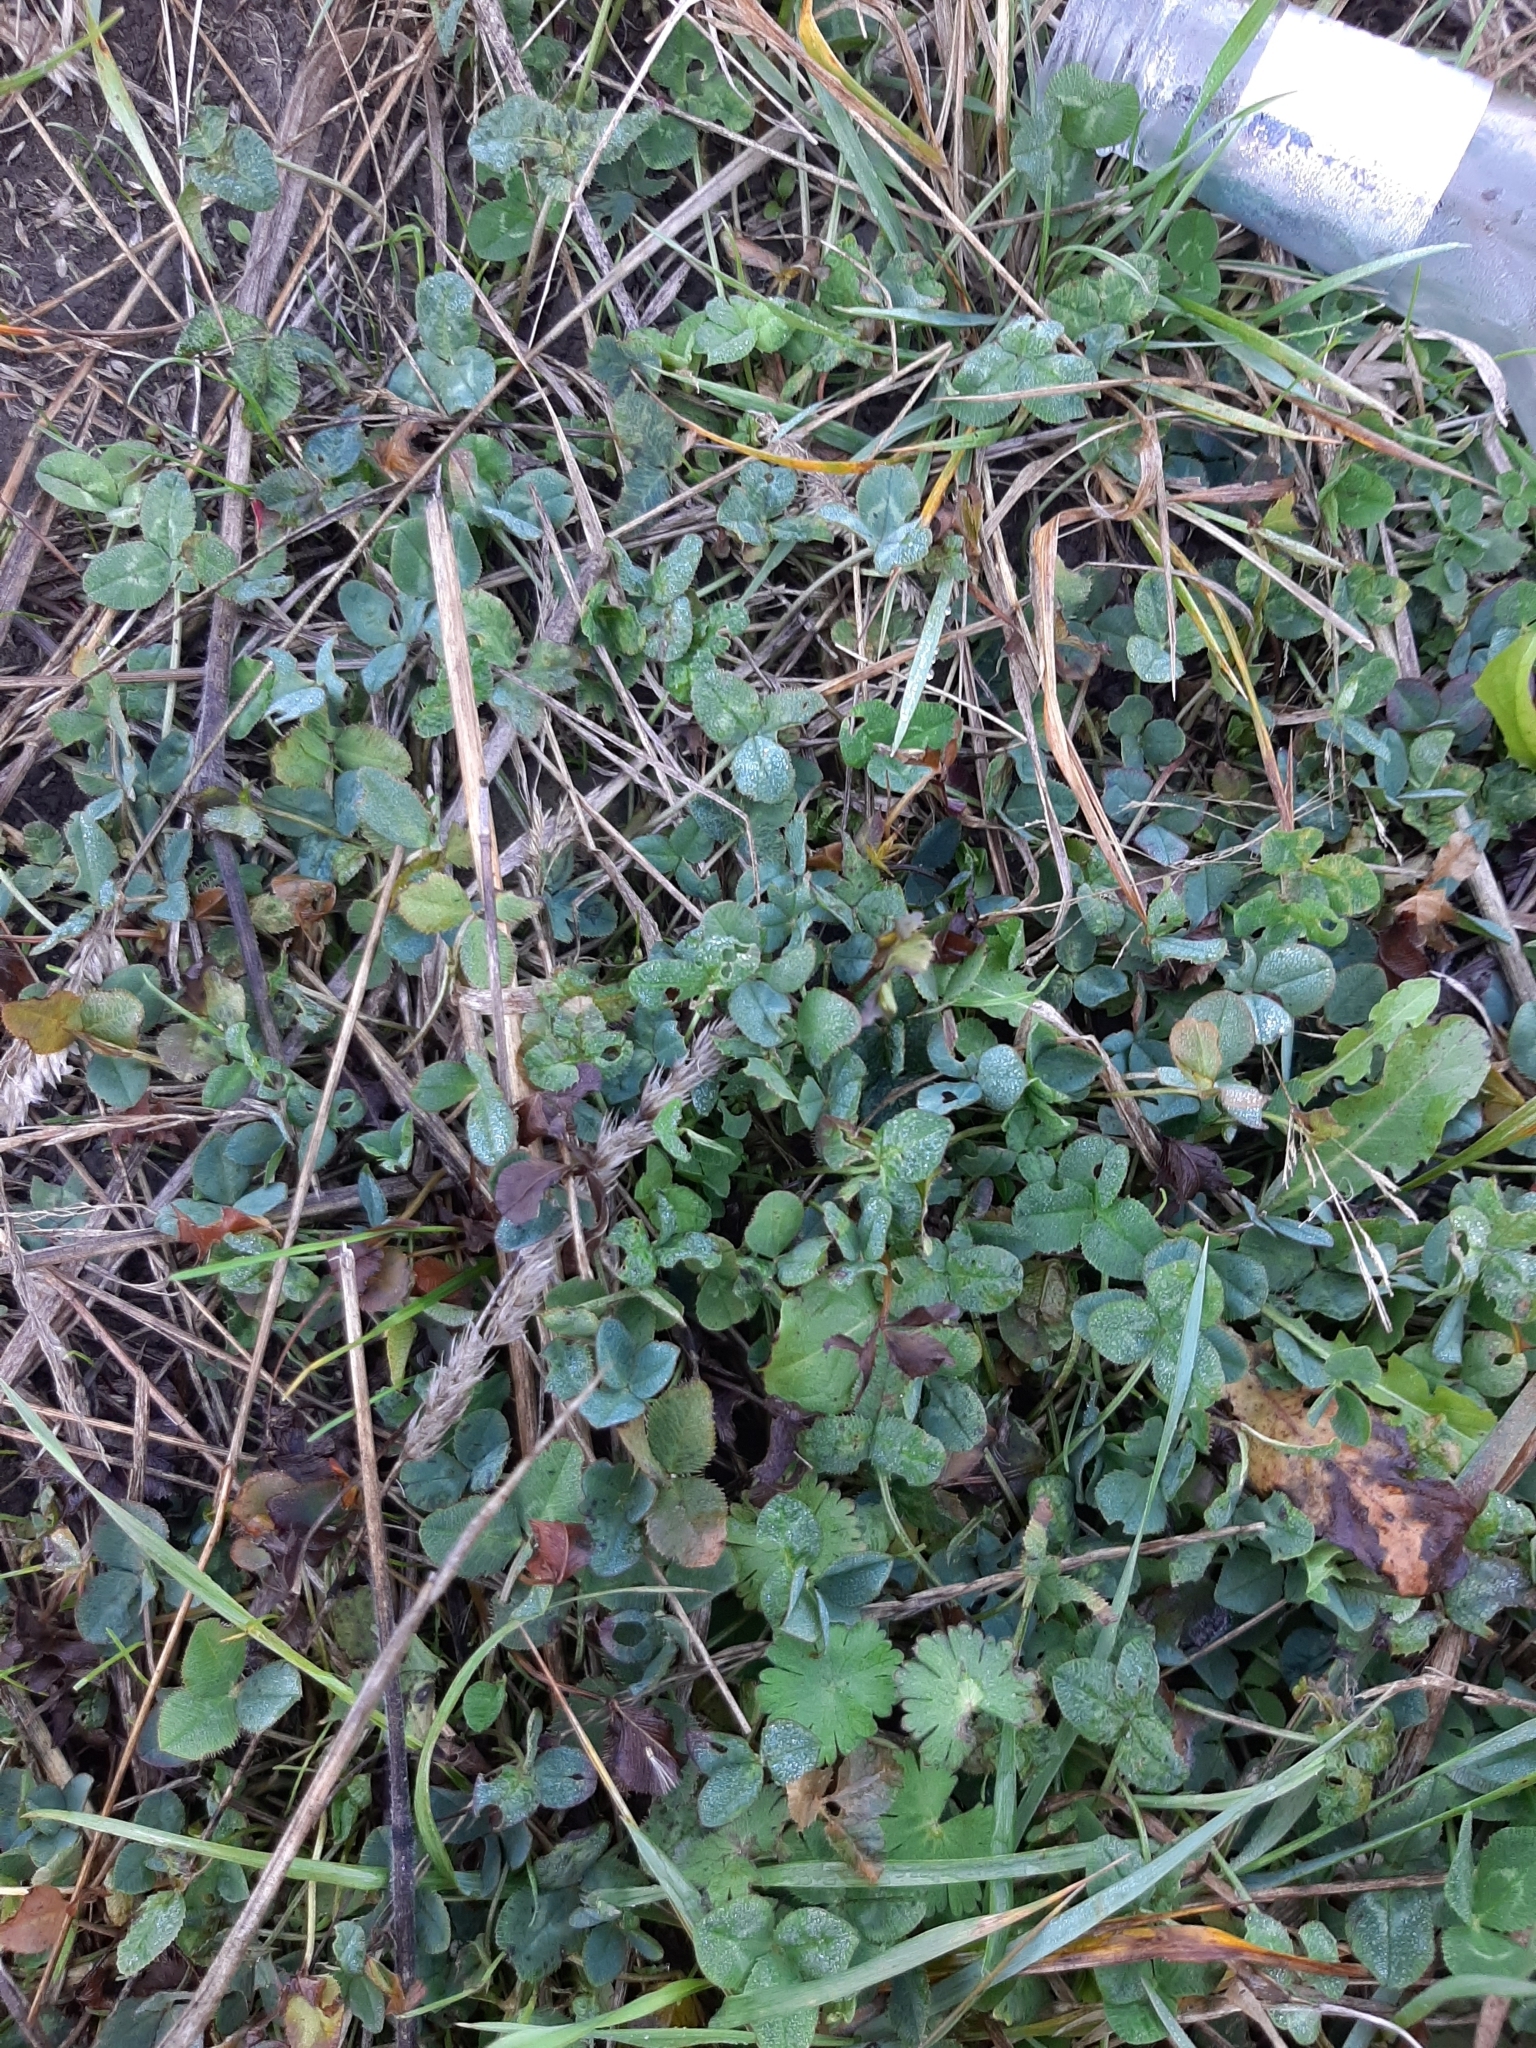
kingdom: Plantae
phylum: Tracheophyta
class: Magnoliopsida
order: Fabales
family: Fabaceae
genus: Trifolium
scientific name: Trifolium repens
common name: White clover
